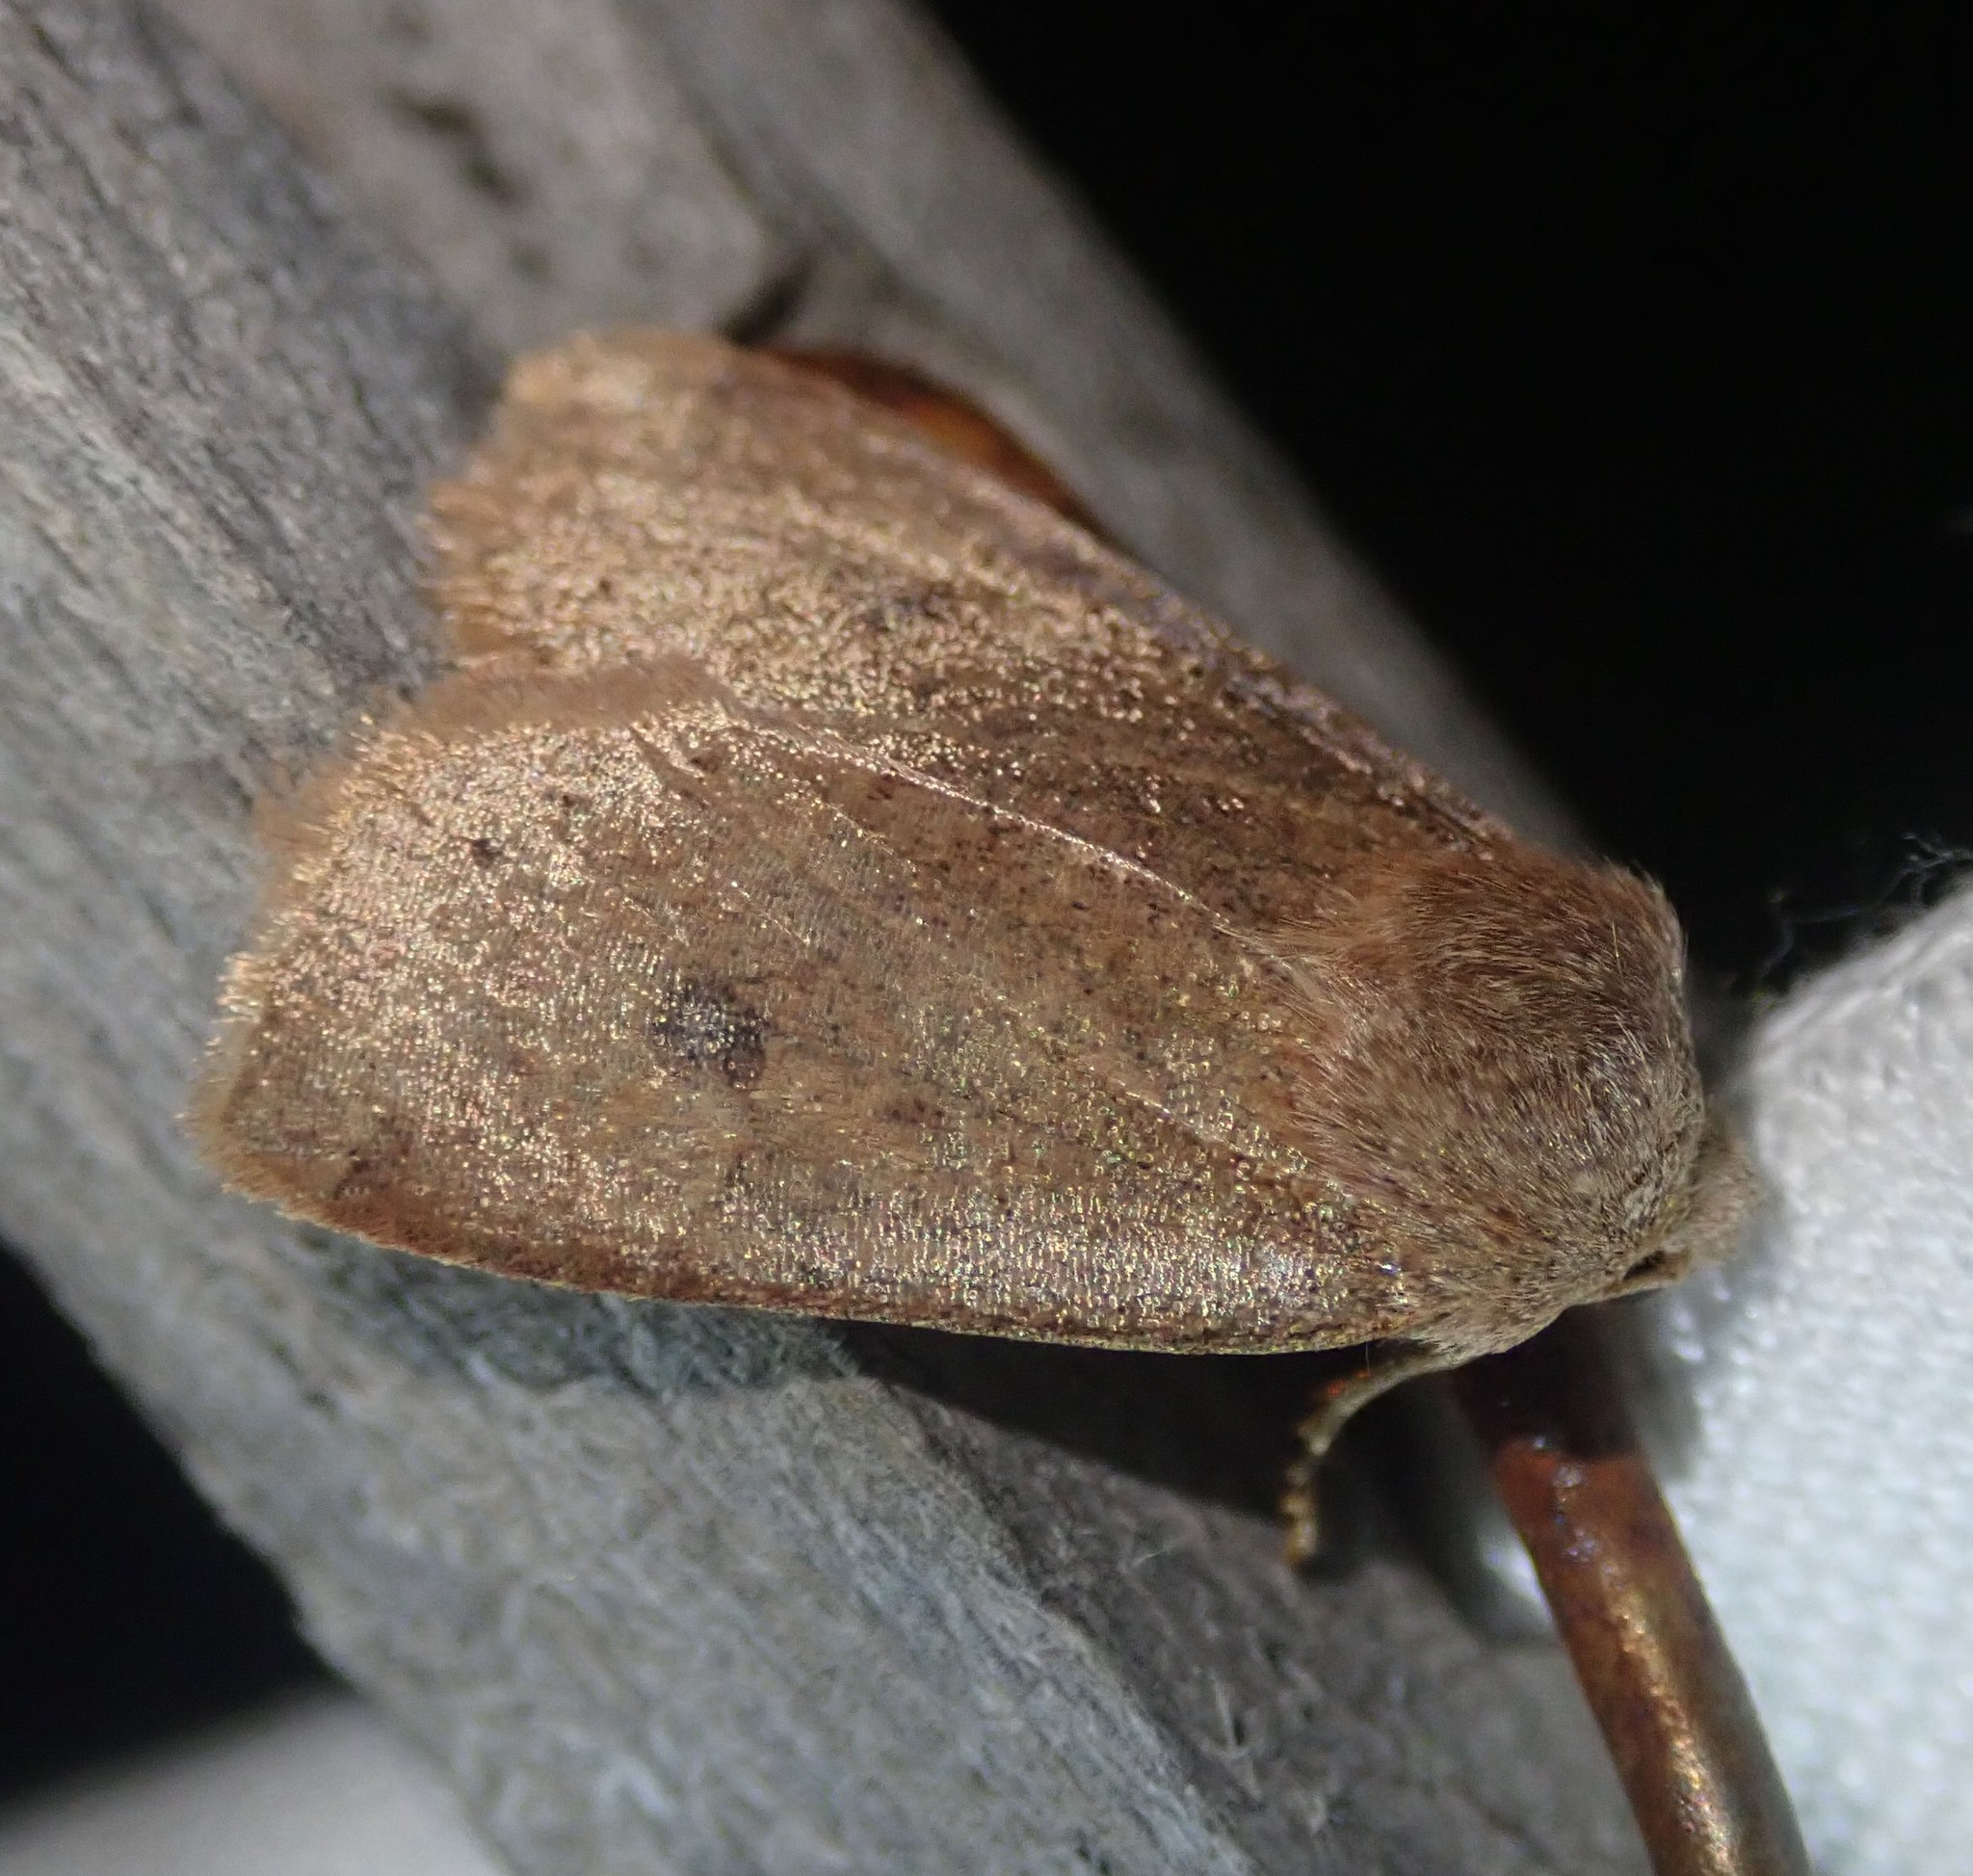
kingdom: Animalia
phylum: Arthropoda
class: Insecta
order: Lepidoptera
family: Noctuidae
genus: Conistra
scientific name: Conistra vaccinii
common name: Chestnut
